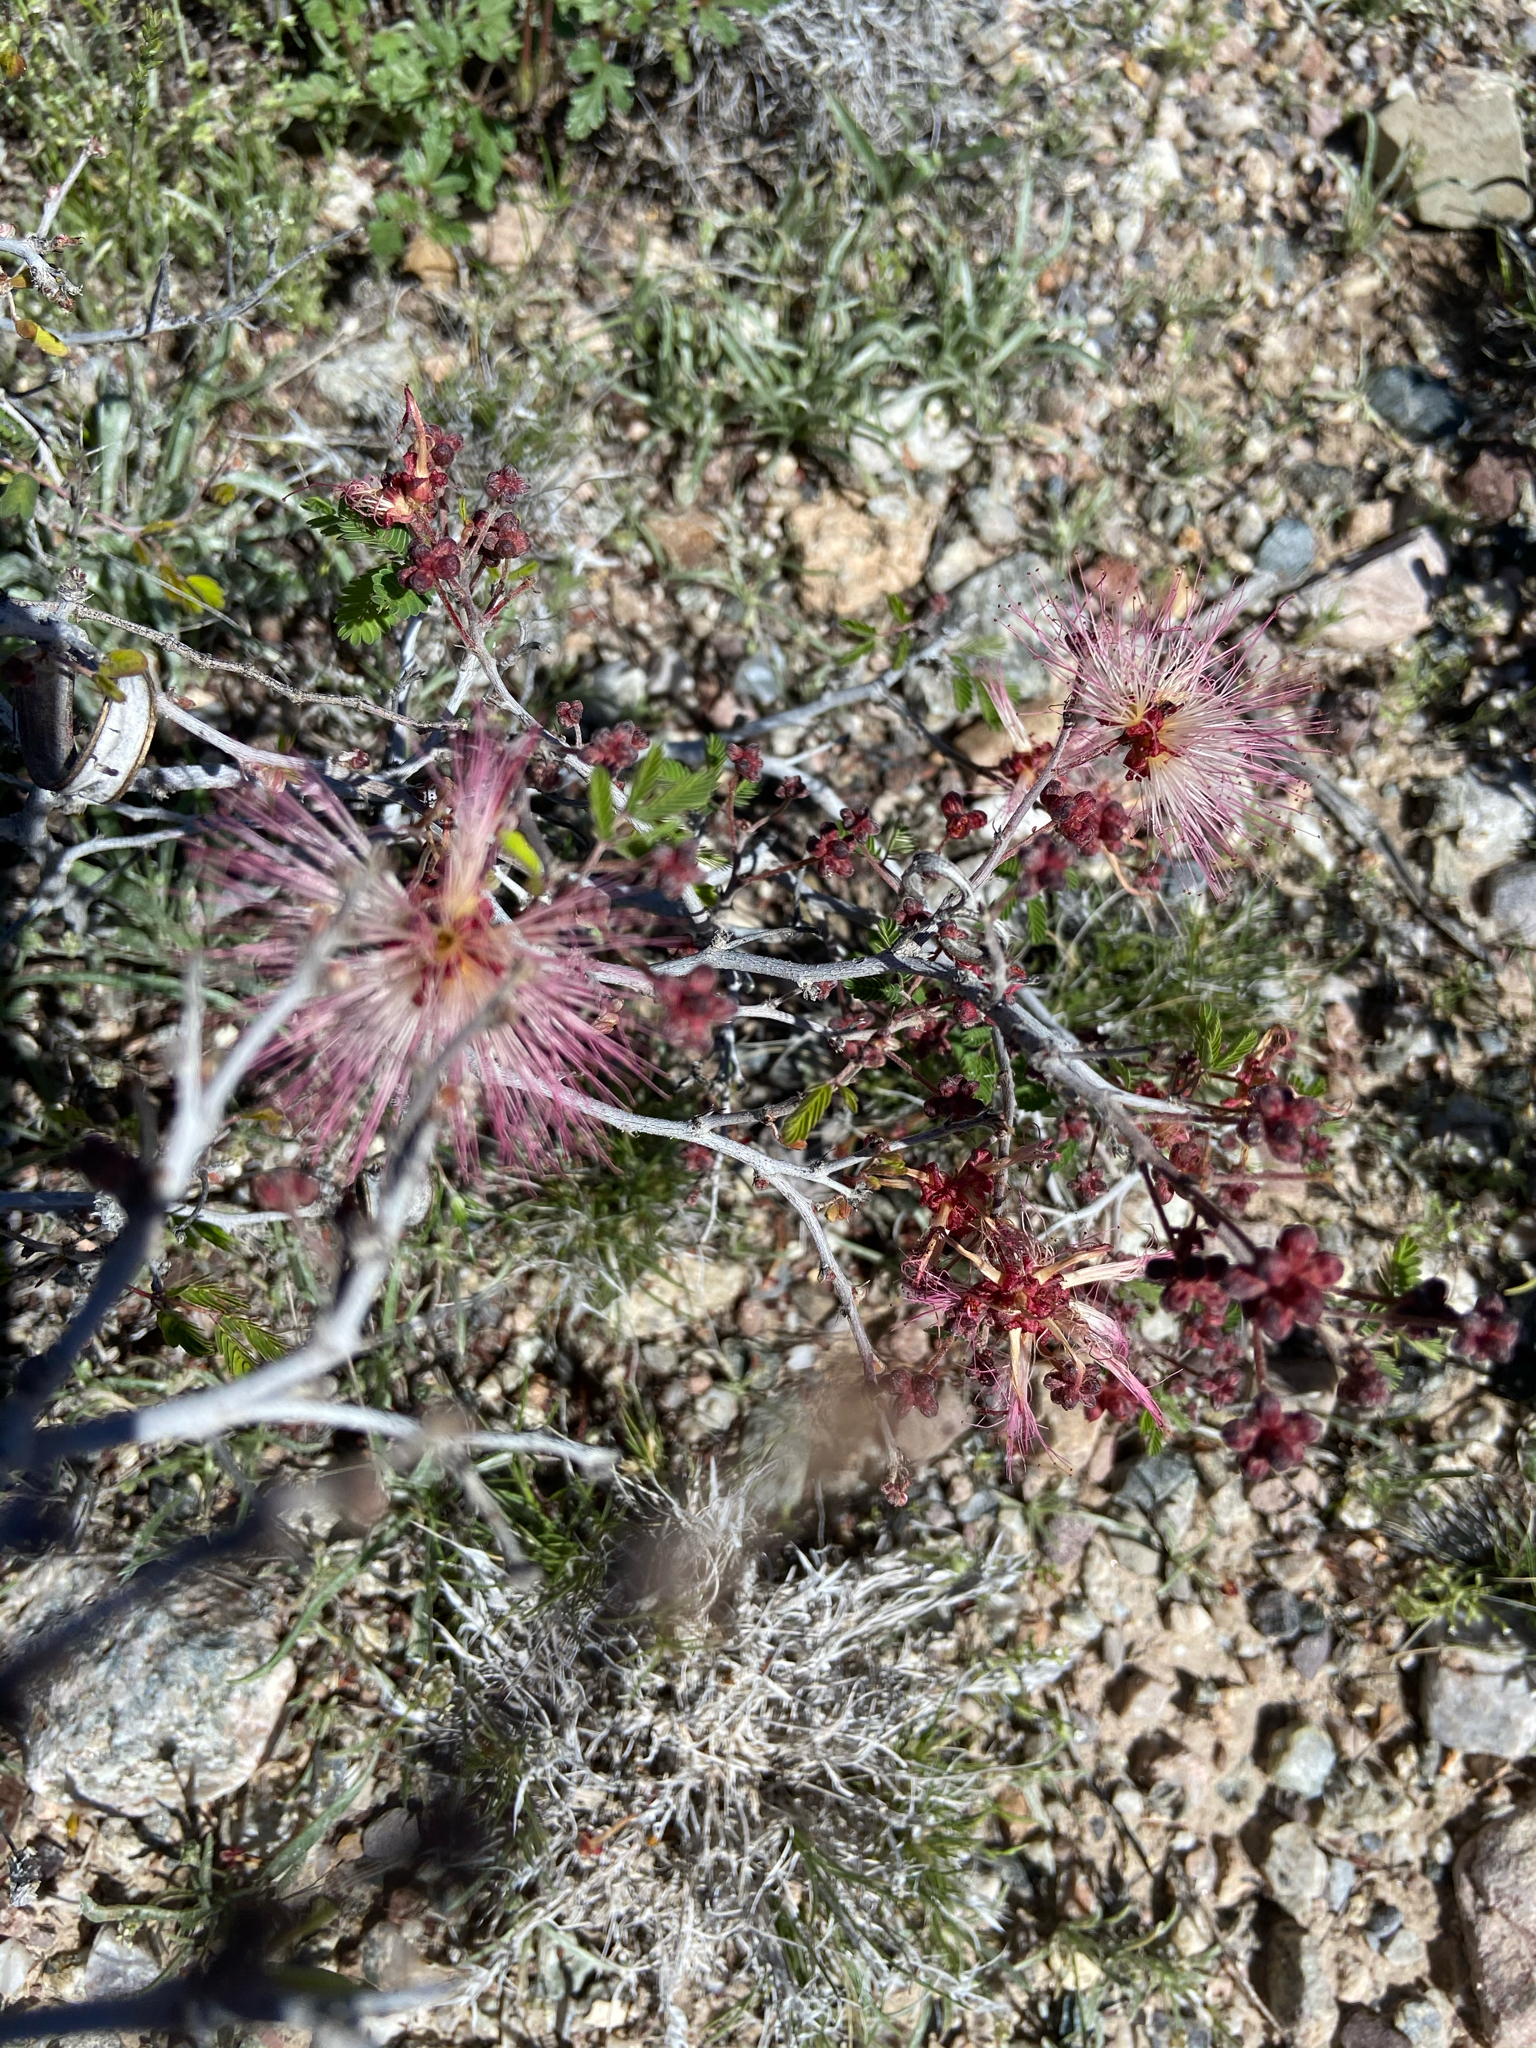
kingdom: Plantae
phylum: Tracheophyta
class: Magnoliopsida
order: Fabales
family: Fabaceae
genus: Calliandra
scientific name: Calliandra eriophylla
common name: Fairy-duster
